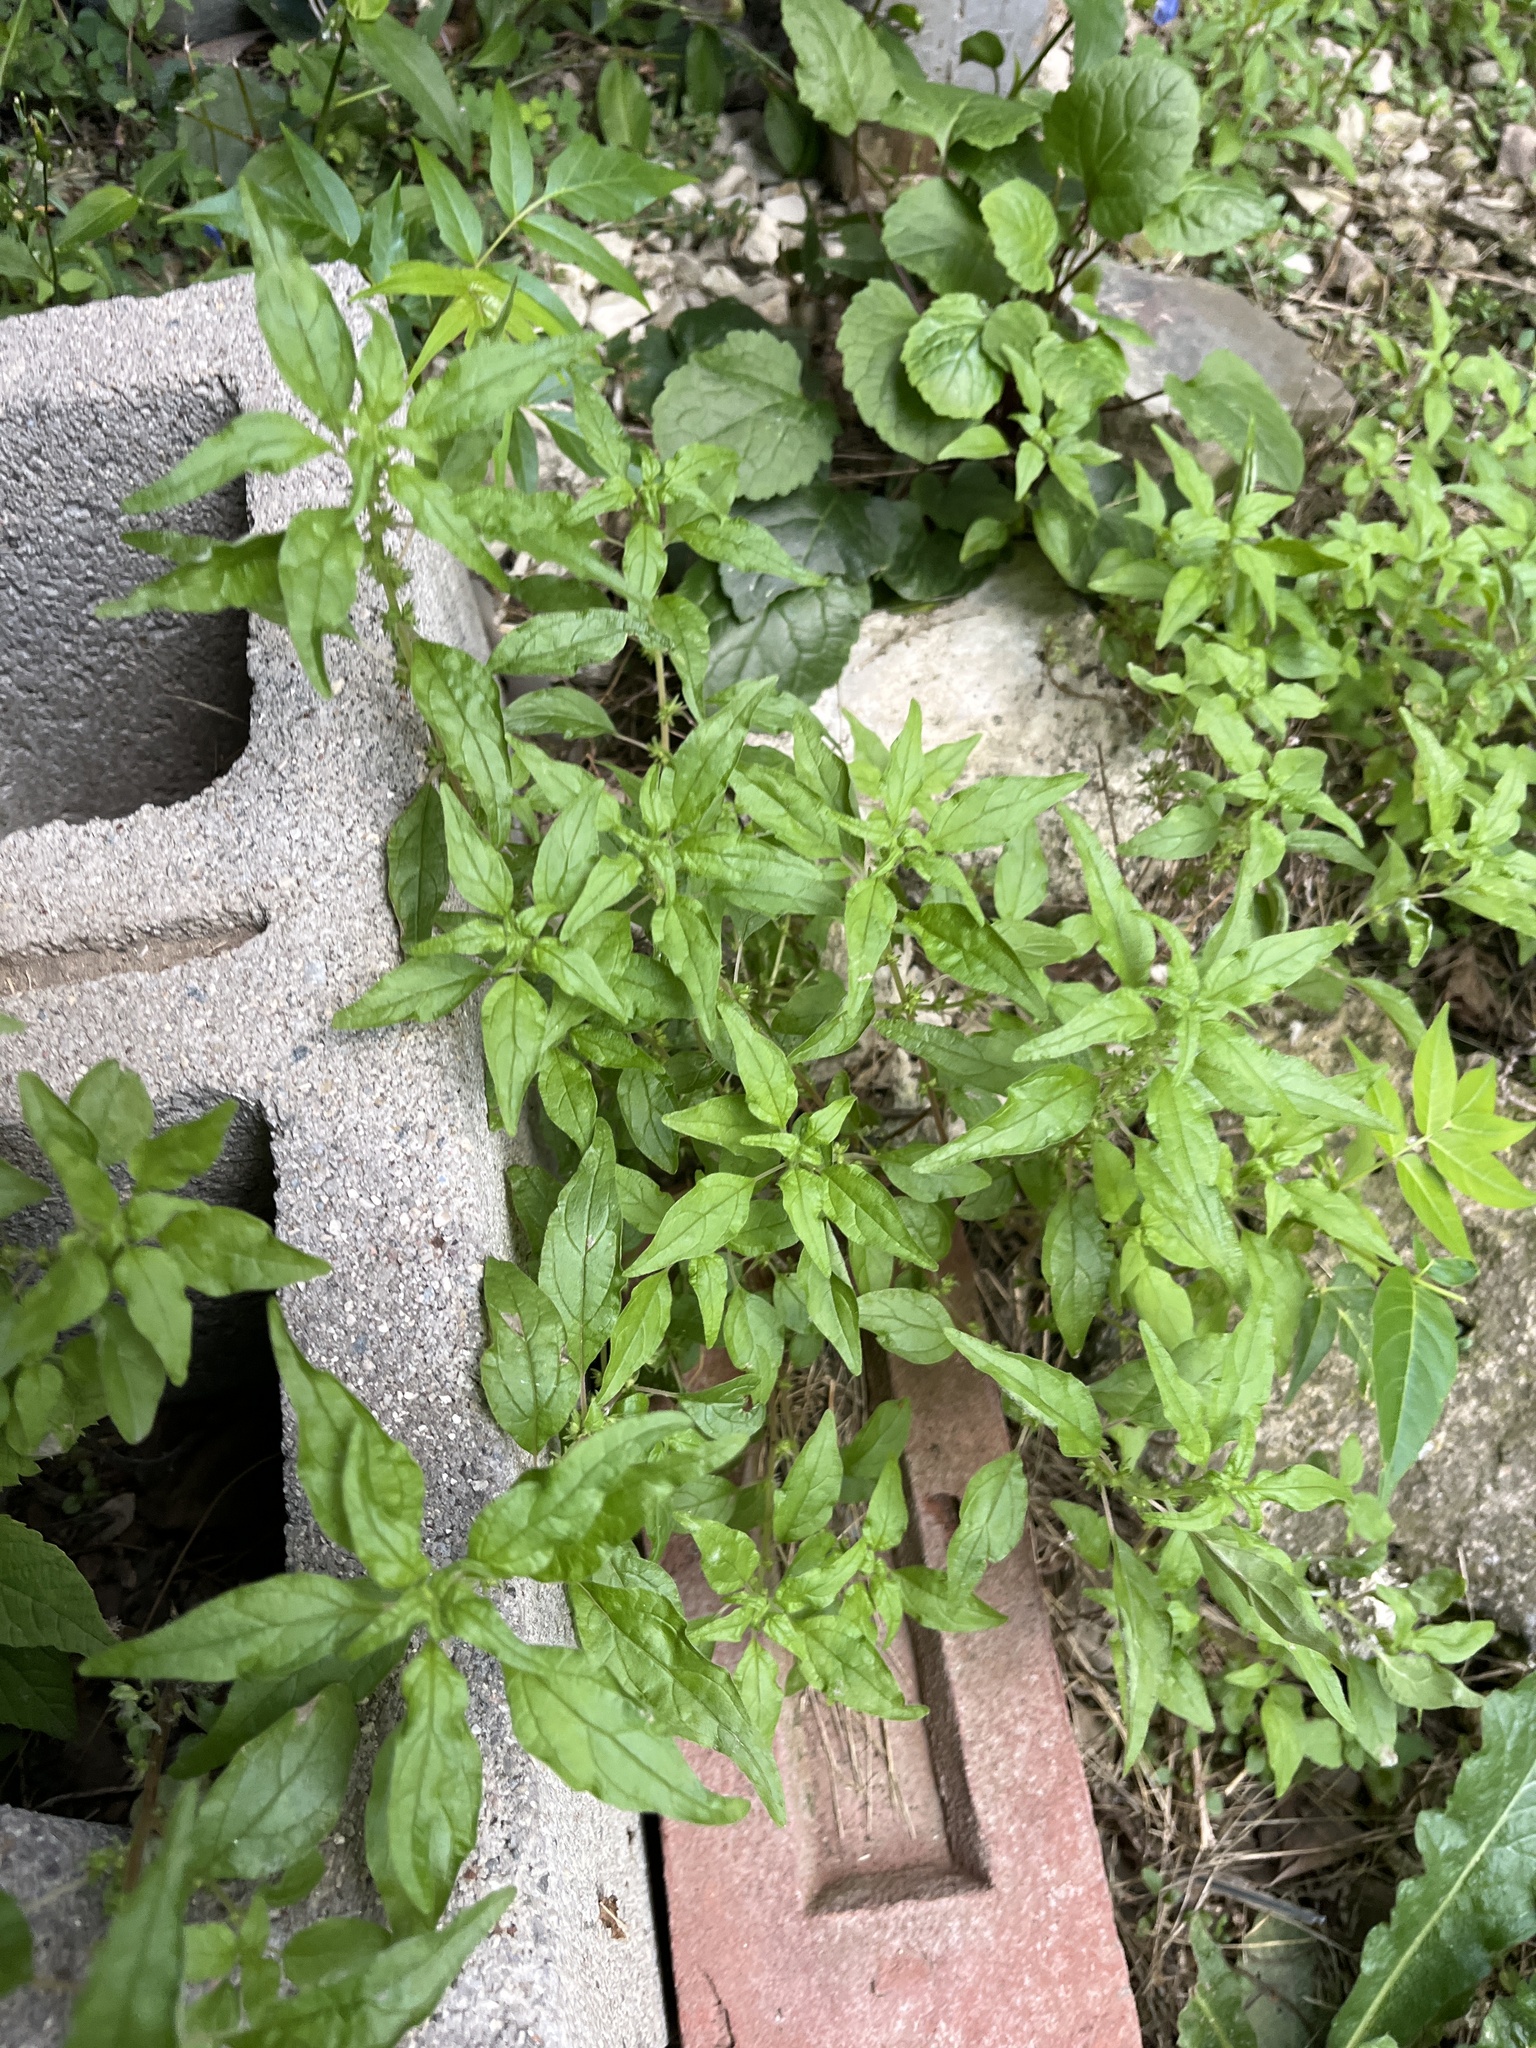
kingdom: Plantae
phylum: Tracheophyta
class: Magnoliopsida
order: Rosales
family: Urticaceae
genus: Parietaria
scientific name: Parietaria pensylvanica
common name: Pennsylvania pellitory
